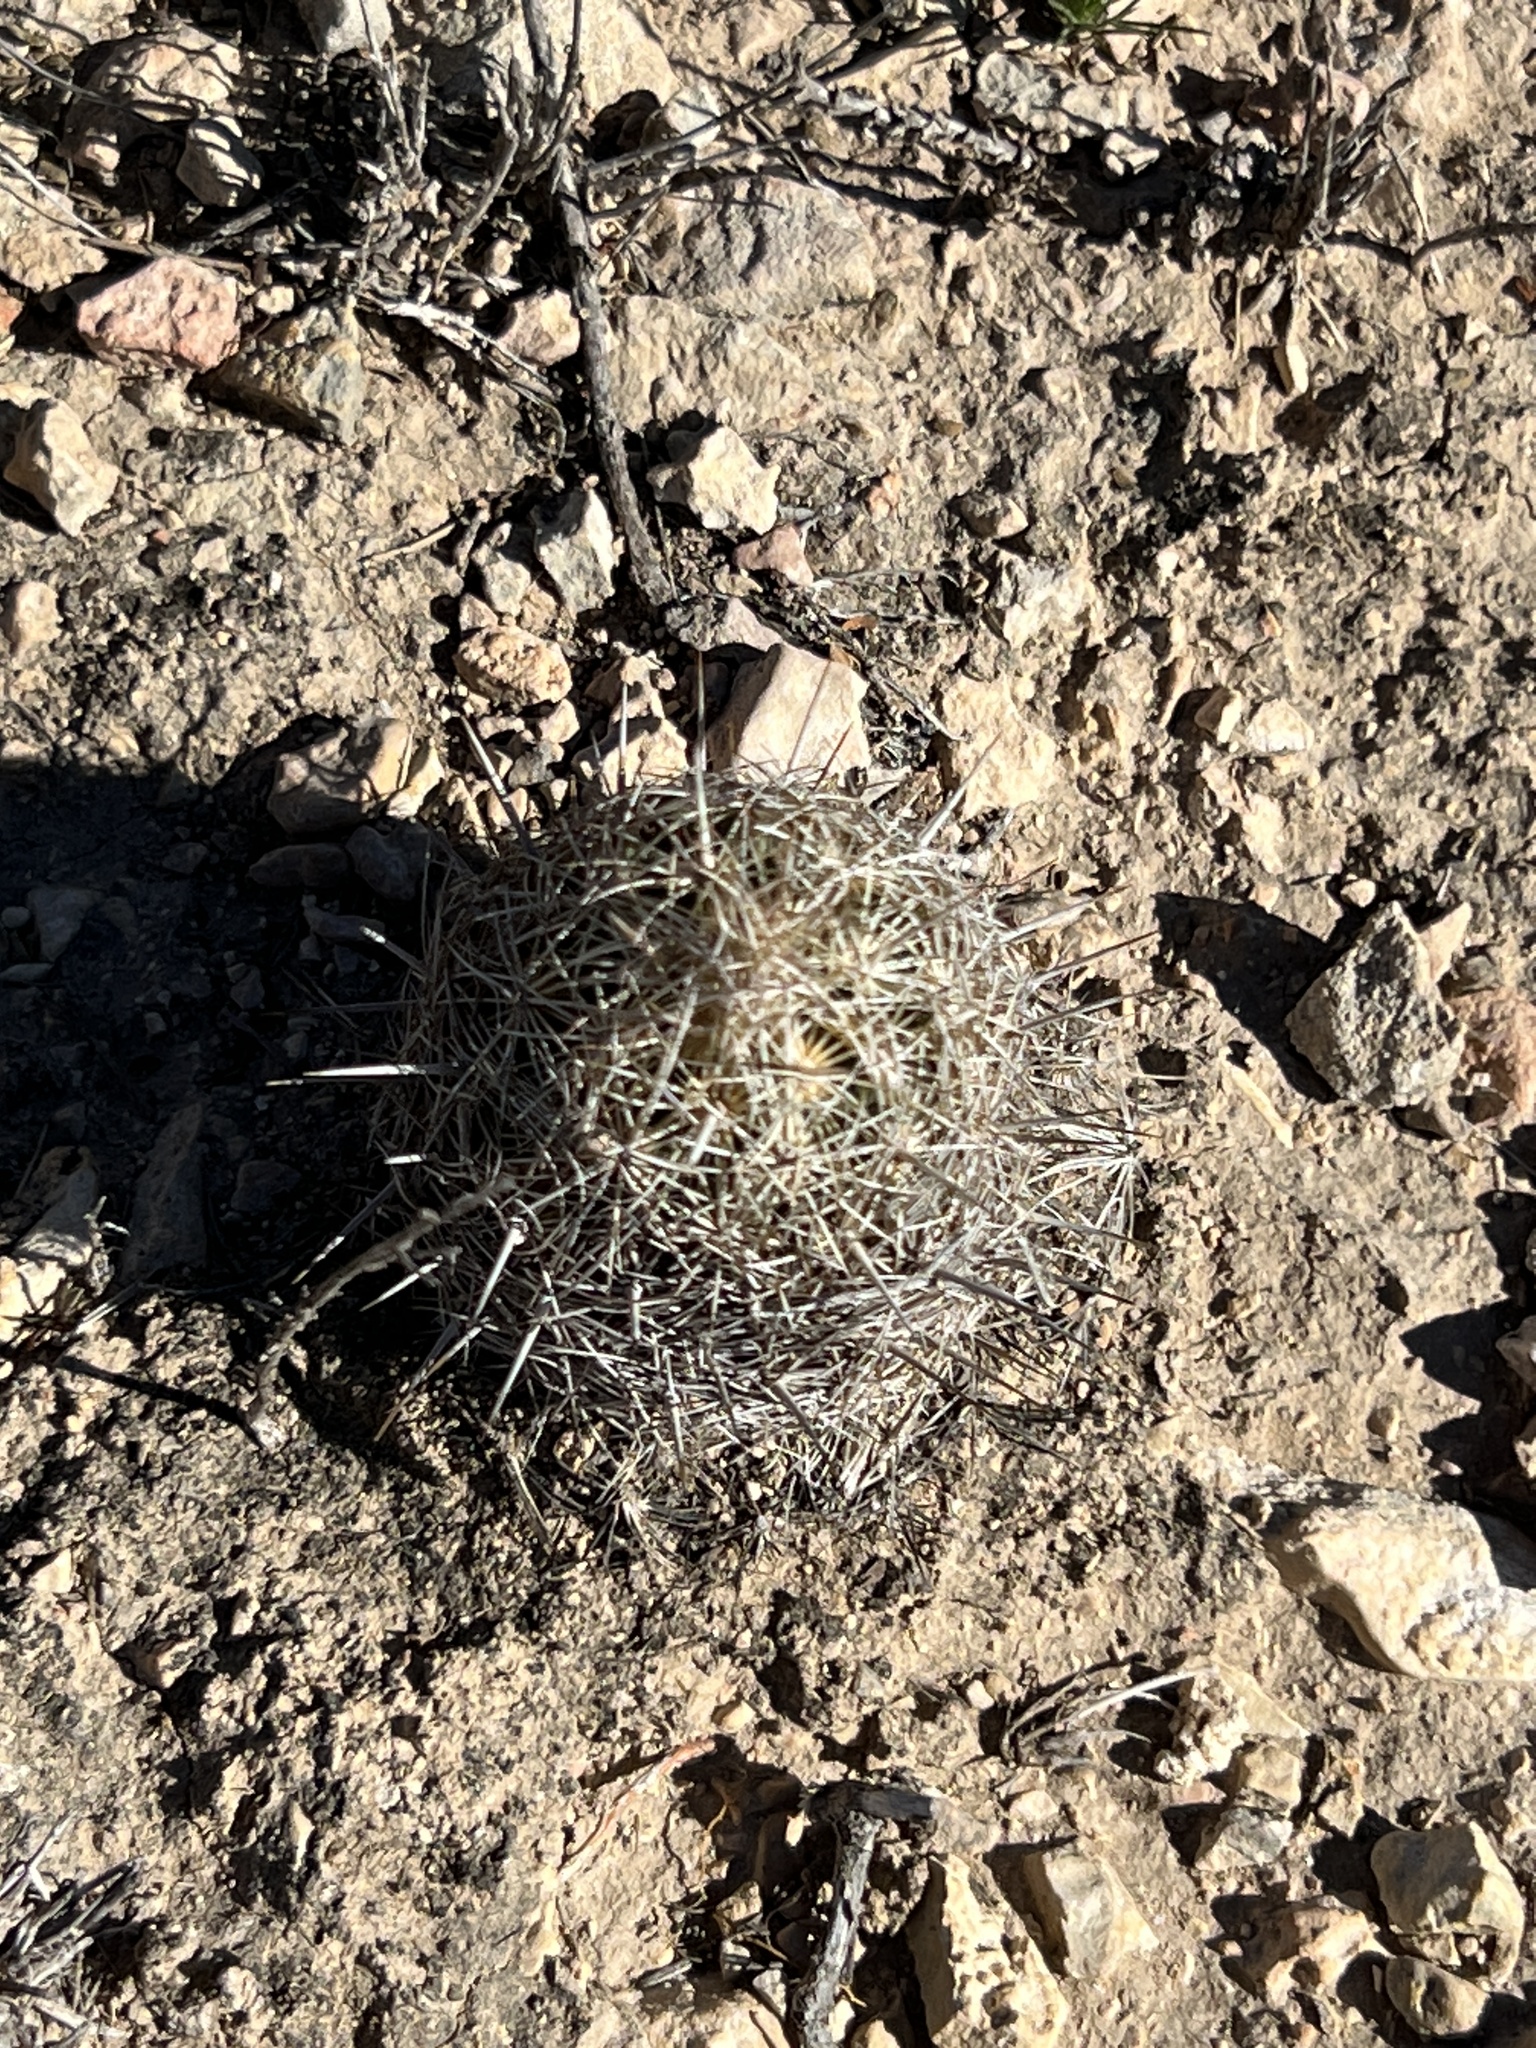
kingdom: Plantae
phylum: Tracheophyta
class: Magnoliopsida
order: Caryophyllales
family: Cactaceae
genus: Coryphantha
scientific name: Coryphantha echinus
